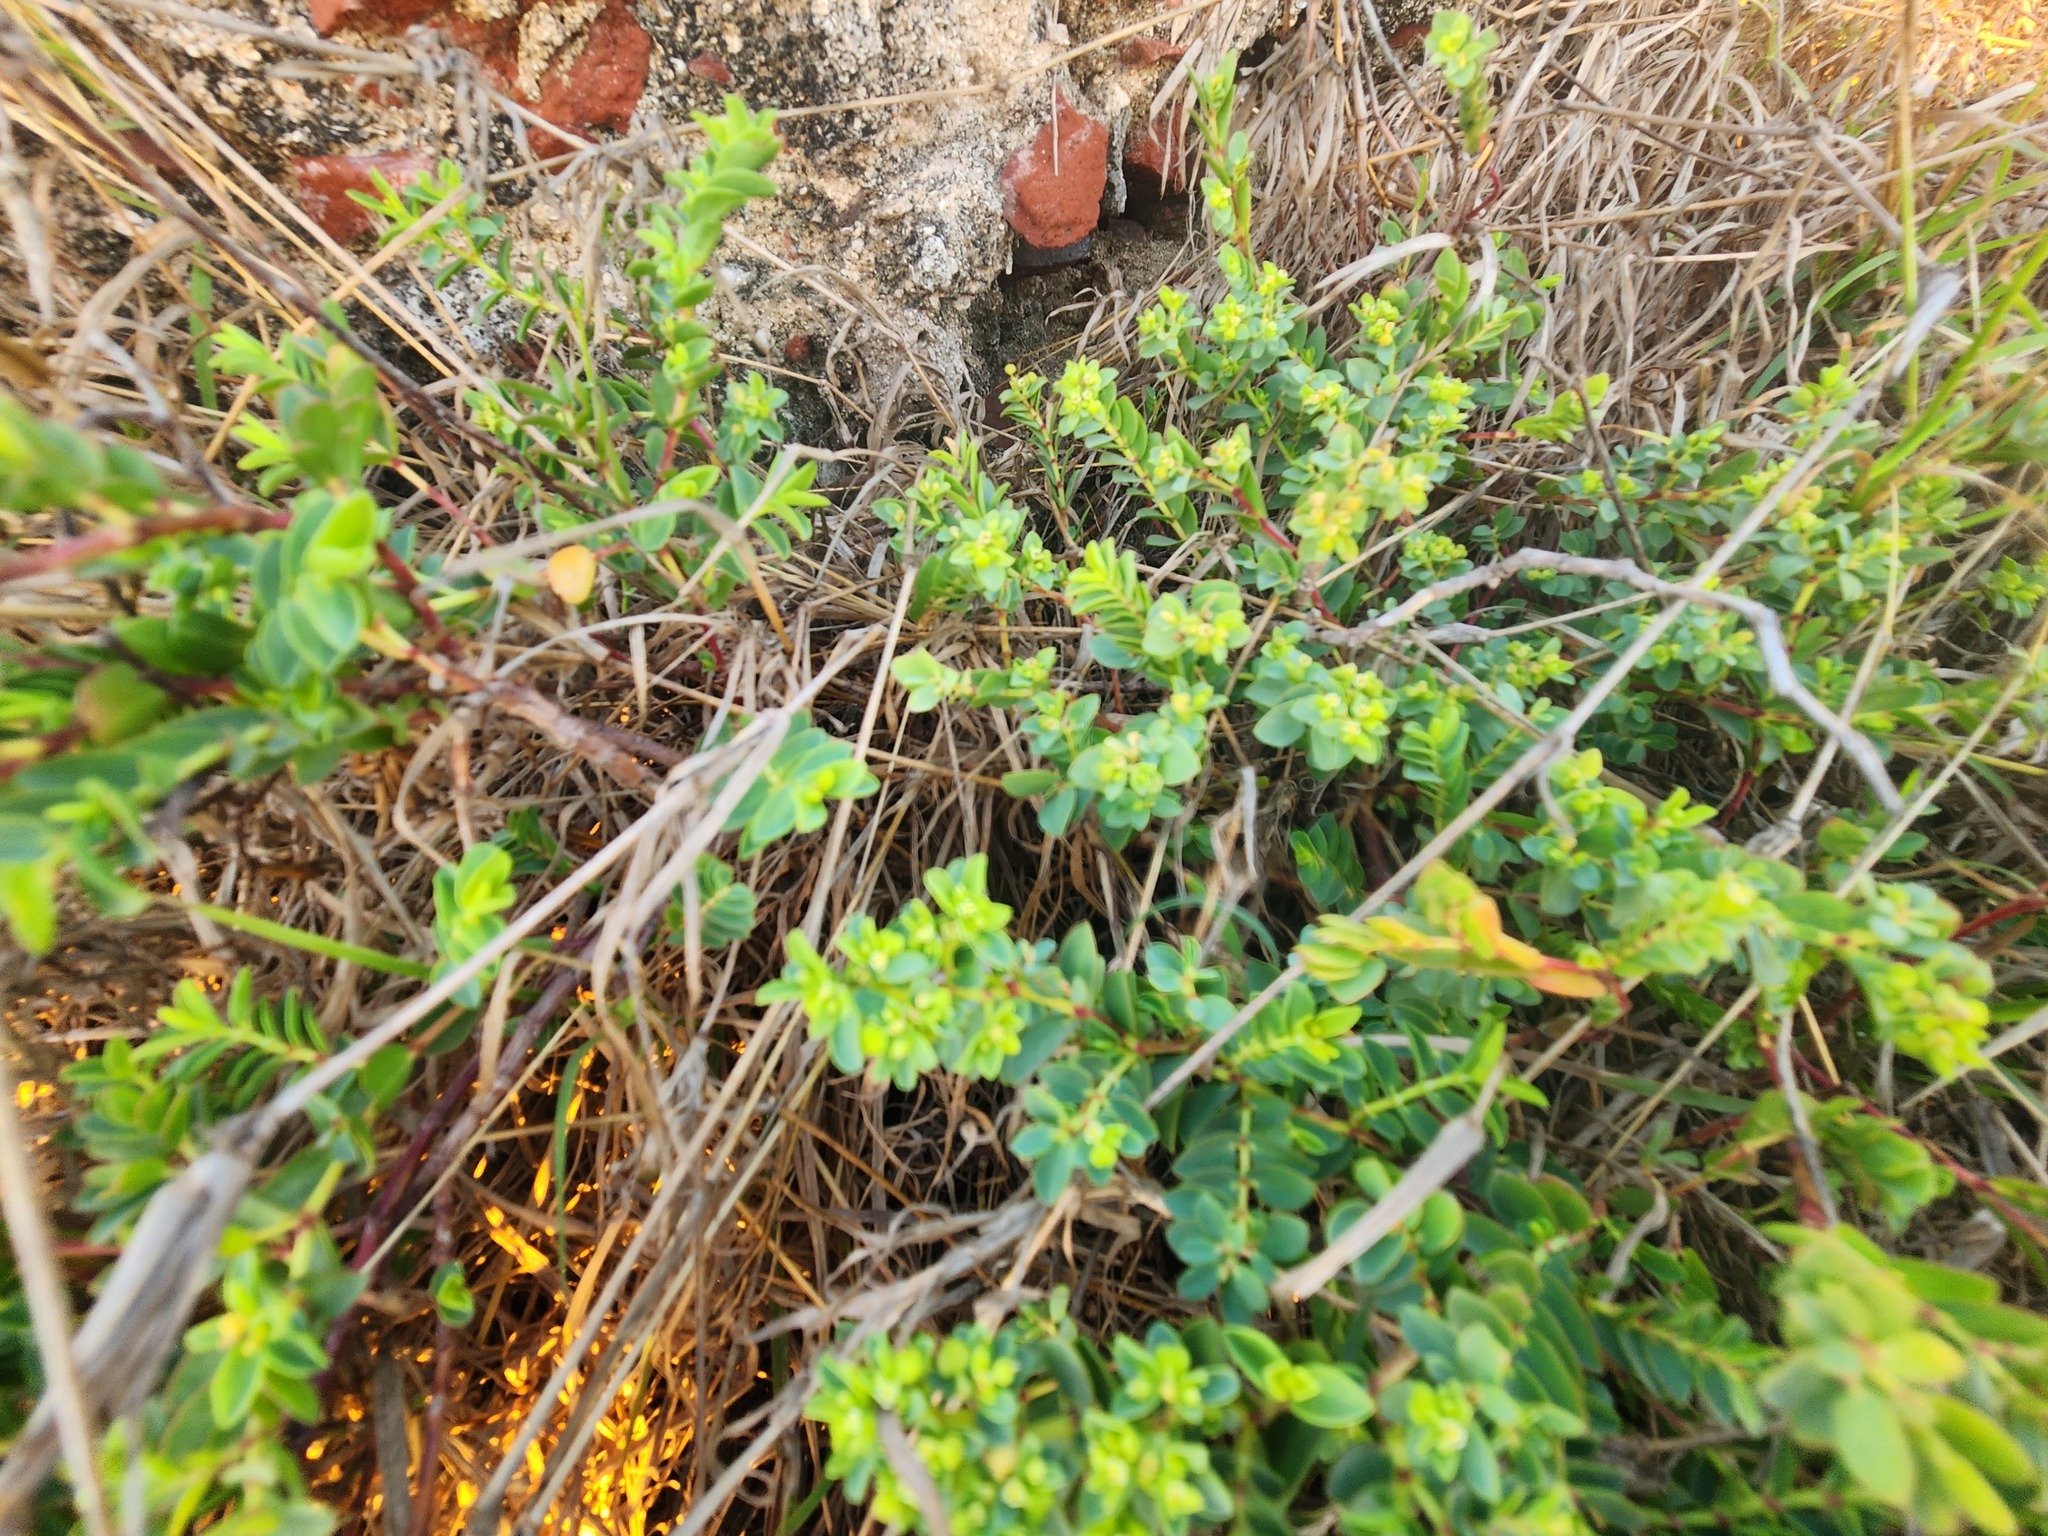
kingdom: Plantae
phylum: Tracheophyta
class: Magnoliopsida
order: Malpighiales
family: Euphorbiaceae
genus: Euphorbia
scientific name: Euphorbia mesembryanthemifolia
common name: Coastal beach sandmat
